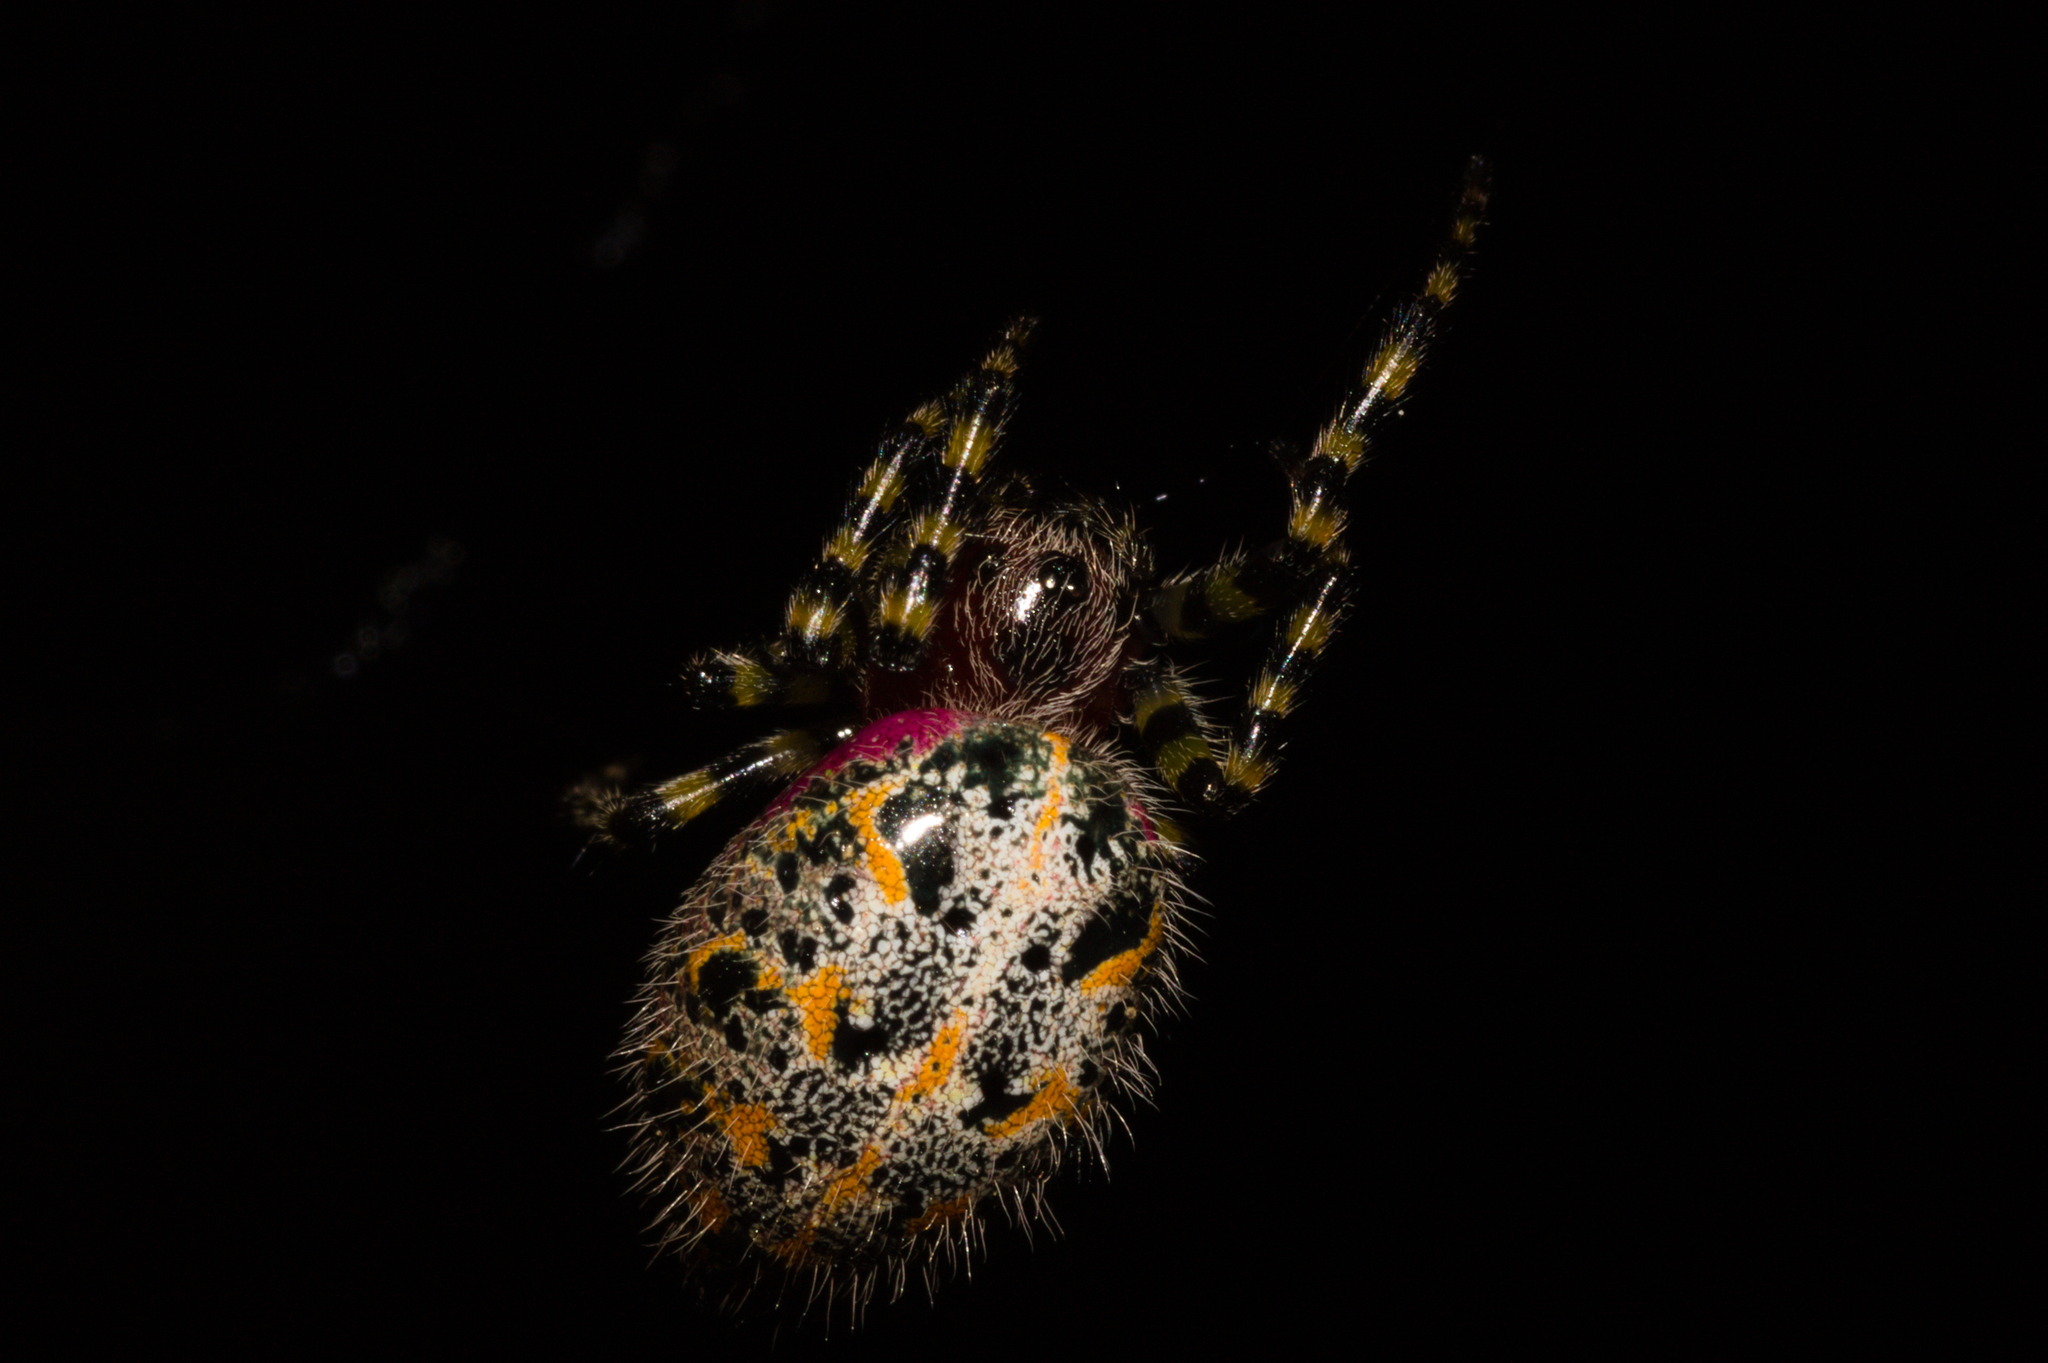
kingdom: Animalia
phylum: Arthropoda
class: Arachnida
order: Araneae
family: Araneidae
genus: Alpaida
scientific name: Alpaida alticeps
